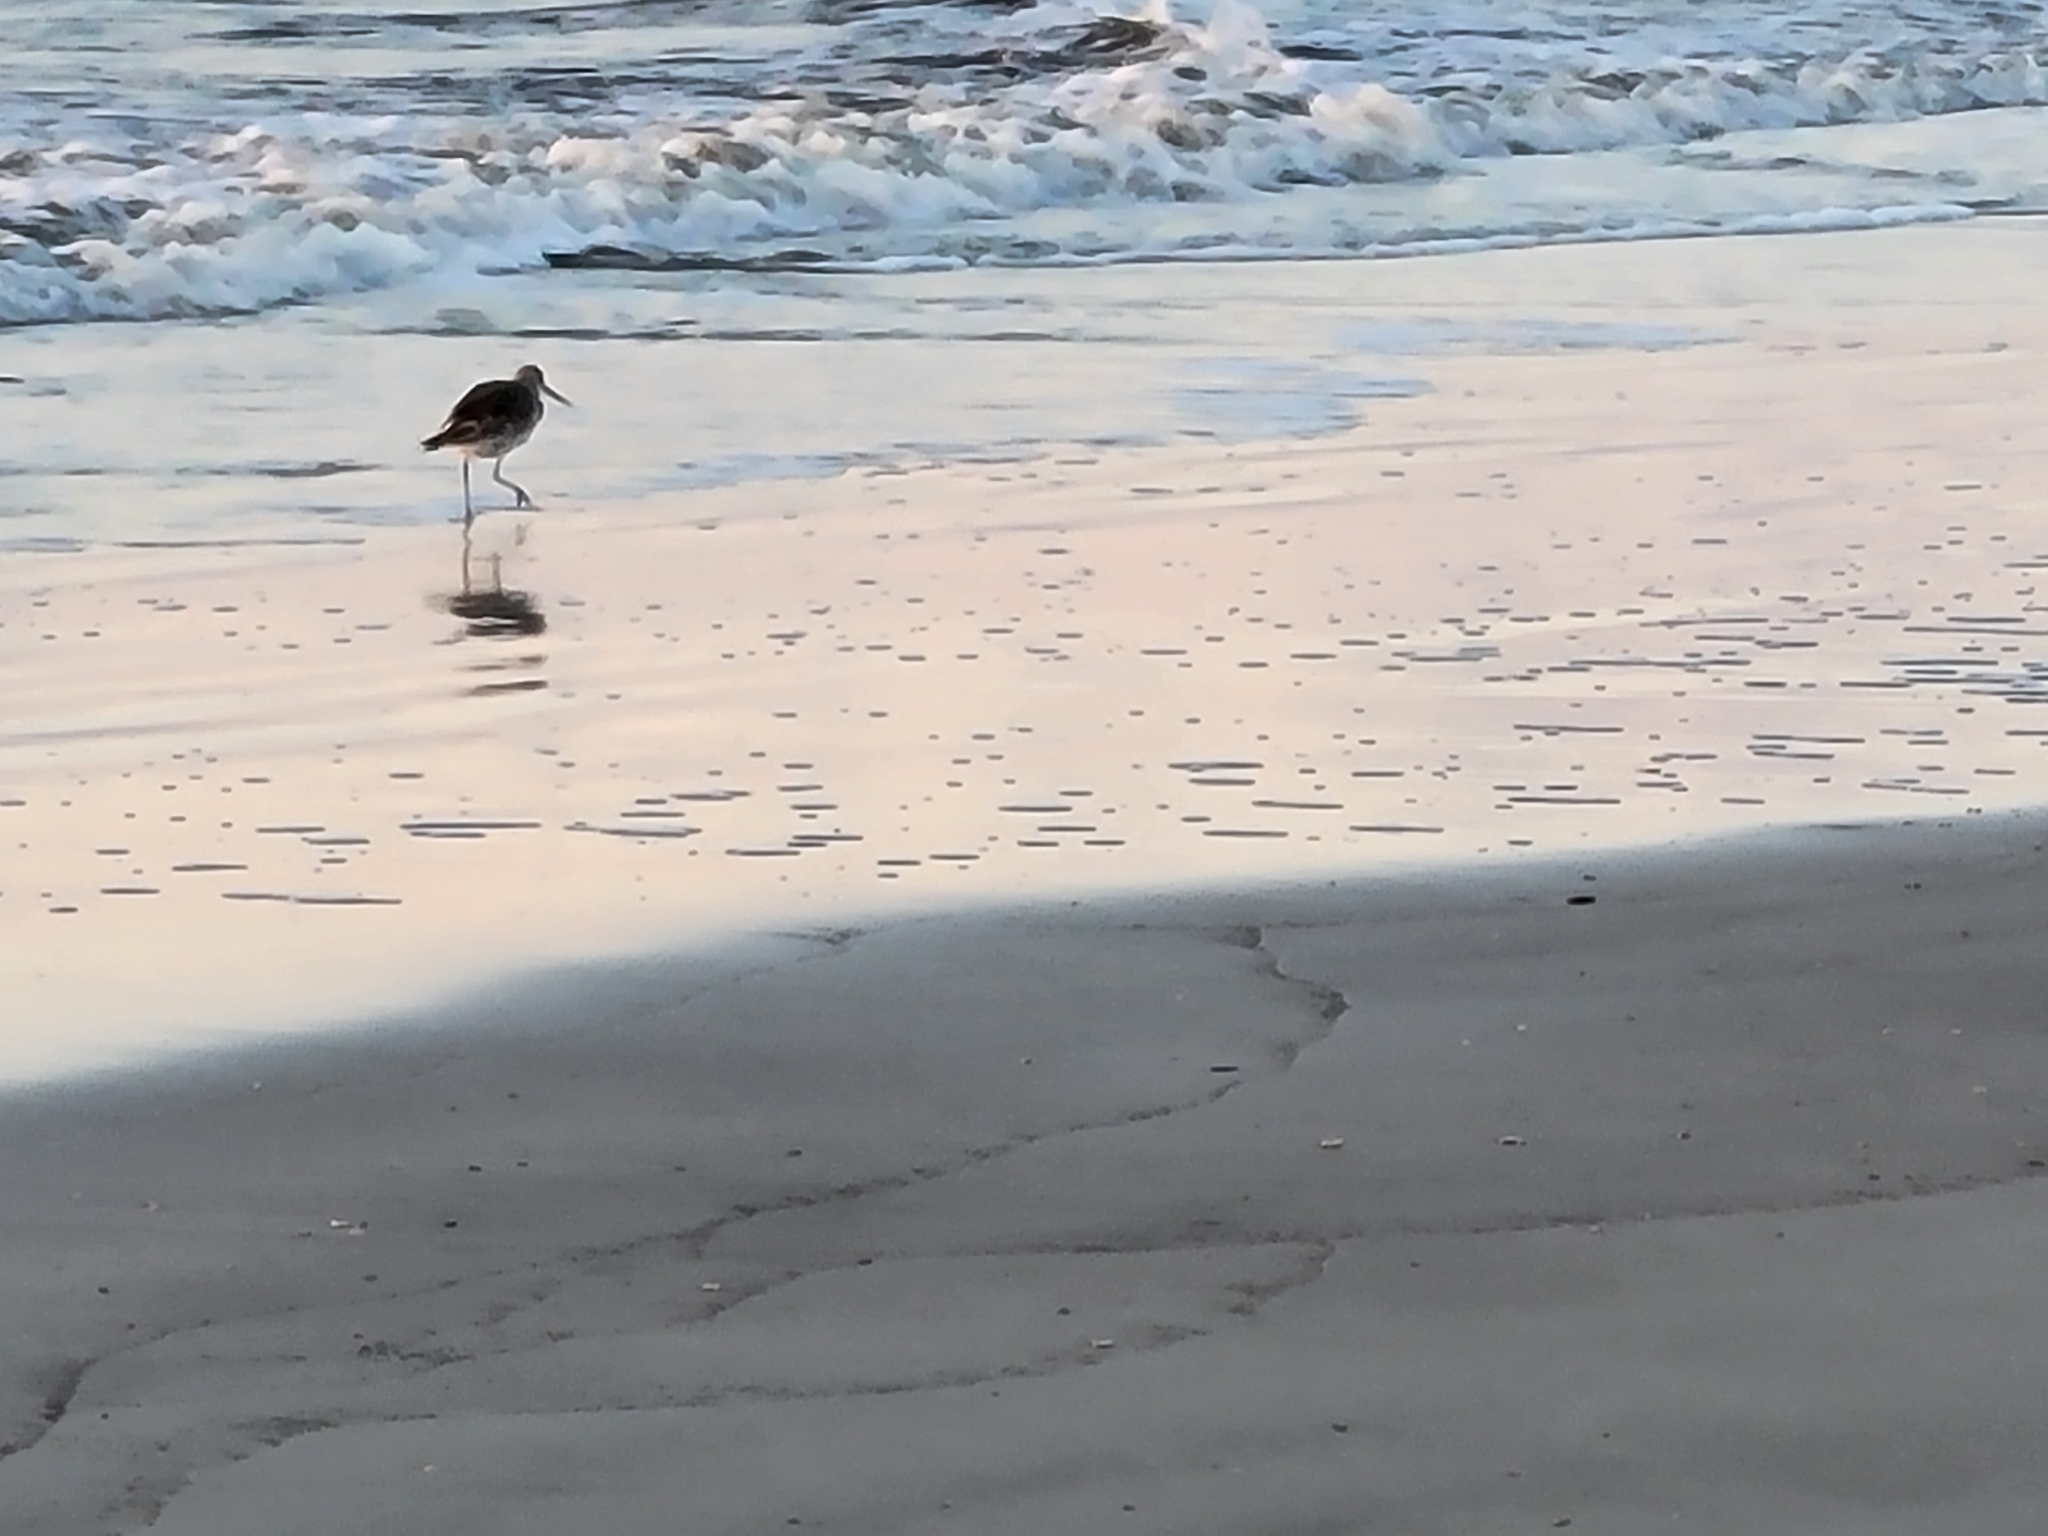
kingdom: Animalia
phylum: Chordata
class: Aves
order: Charadriiformes
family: Scolopacidae
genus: Tringa
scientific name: Tringa semipalmata
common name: Willet
